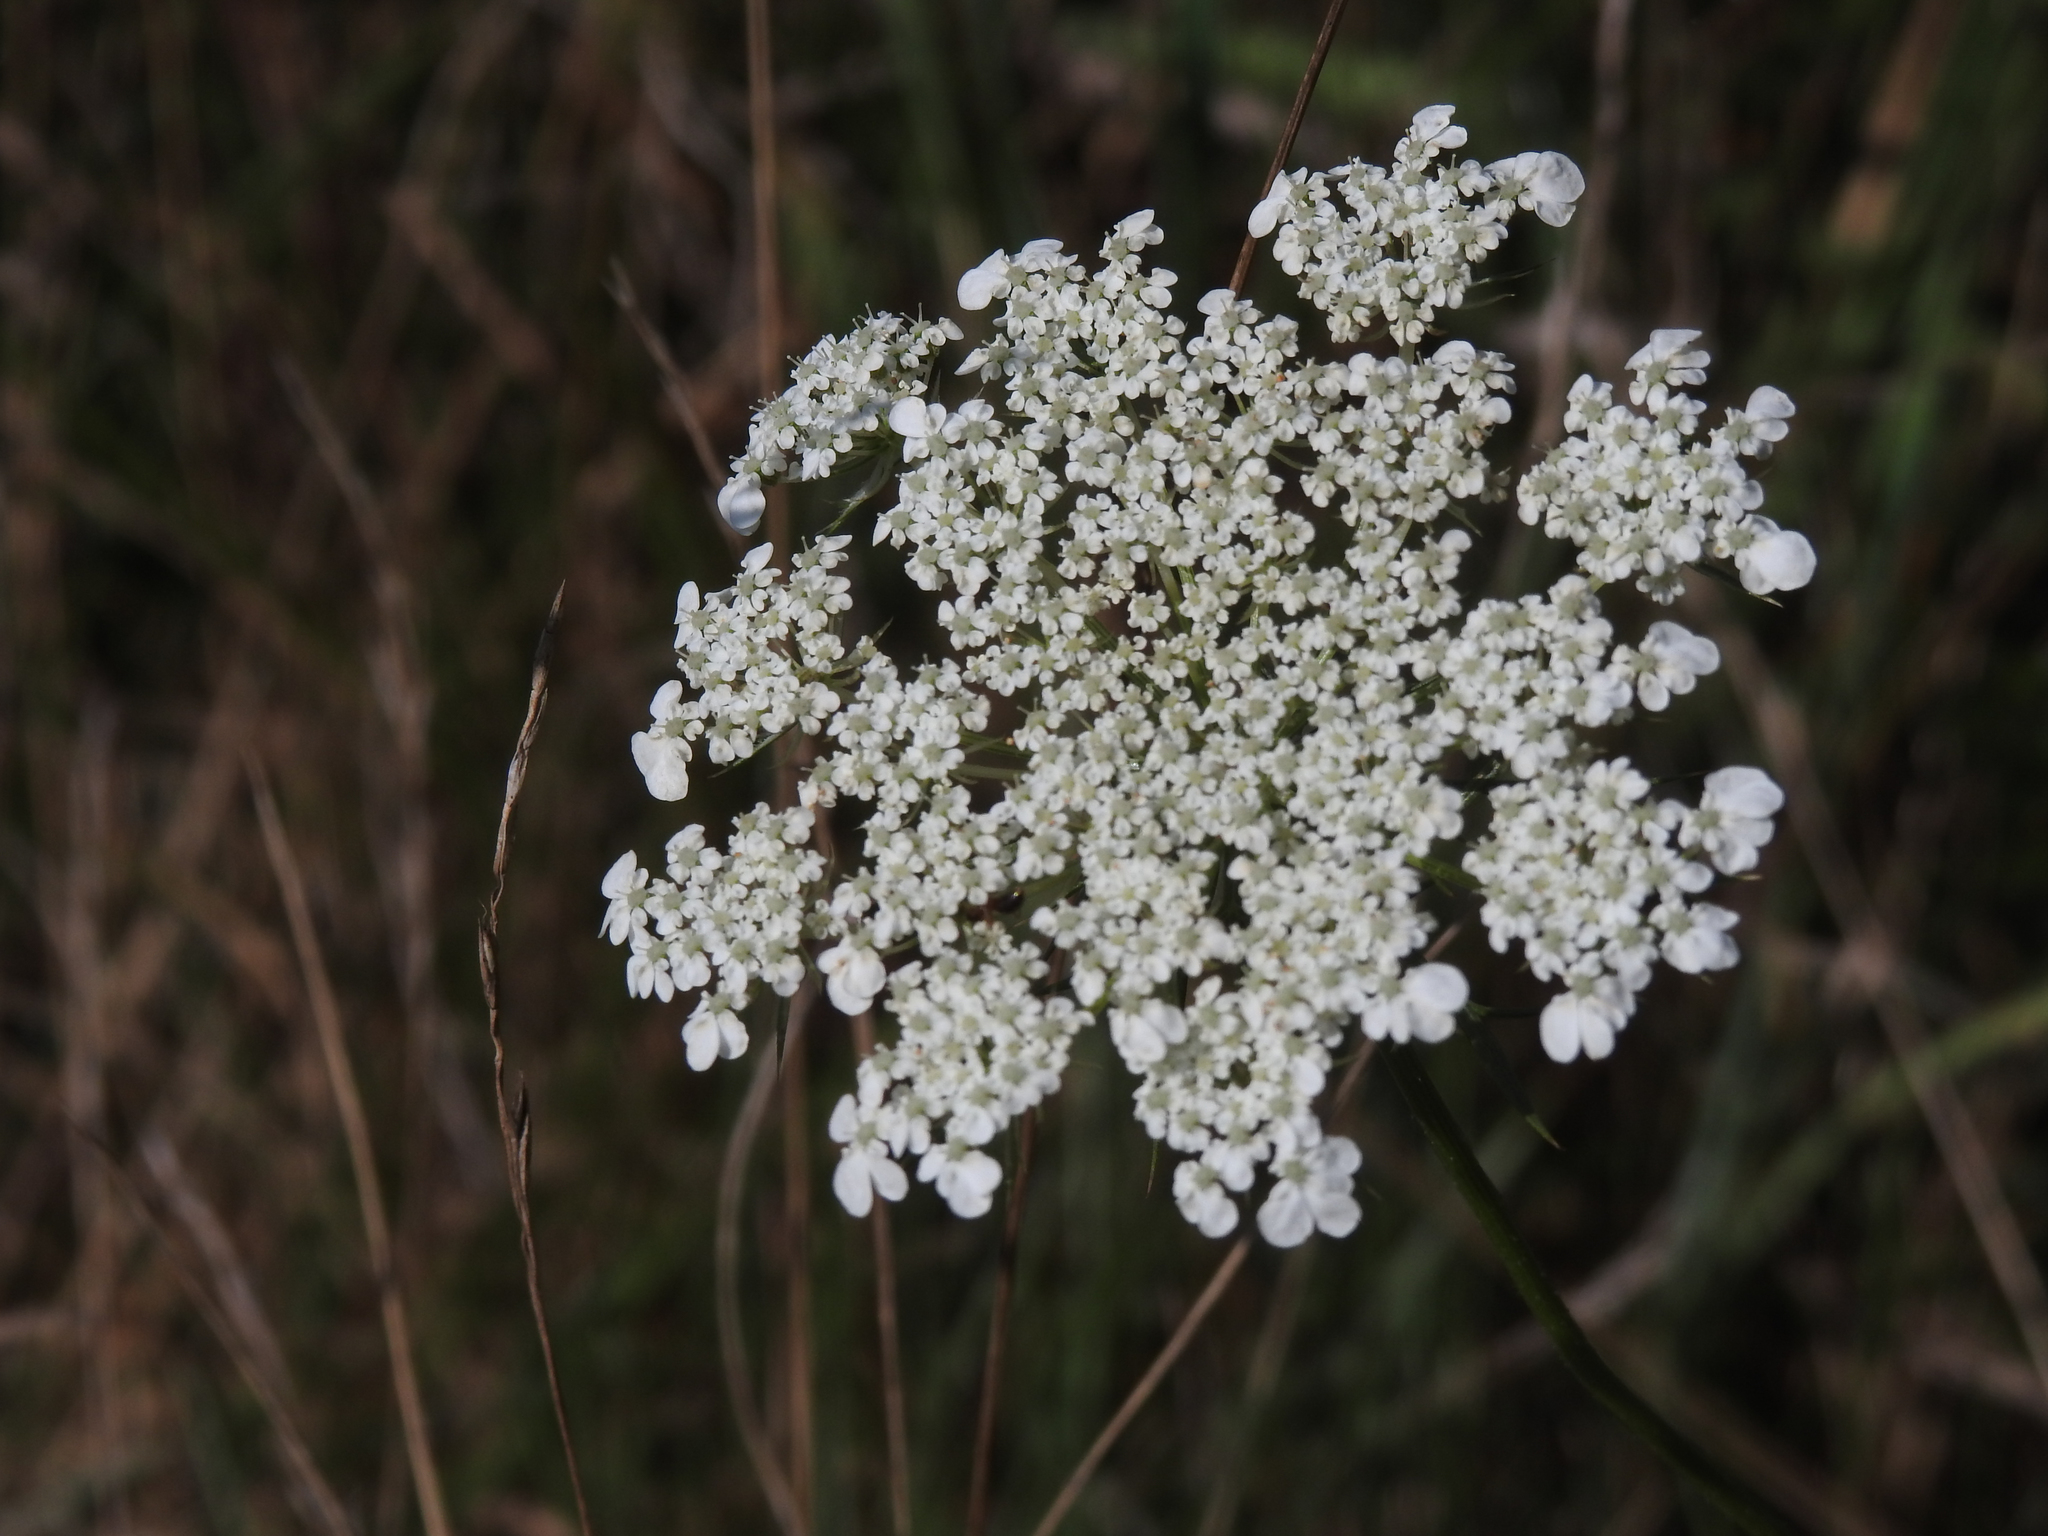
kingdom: Plantae
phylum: Tracheophyta
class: Magnoliopsida
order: Apiales
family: Apiaceae
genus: Daucus
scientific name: Daucus carota
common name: Wild carrot
